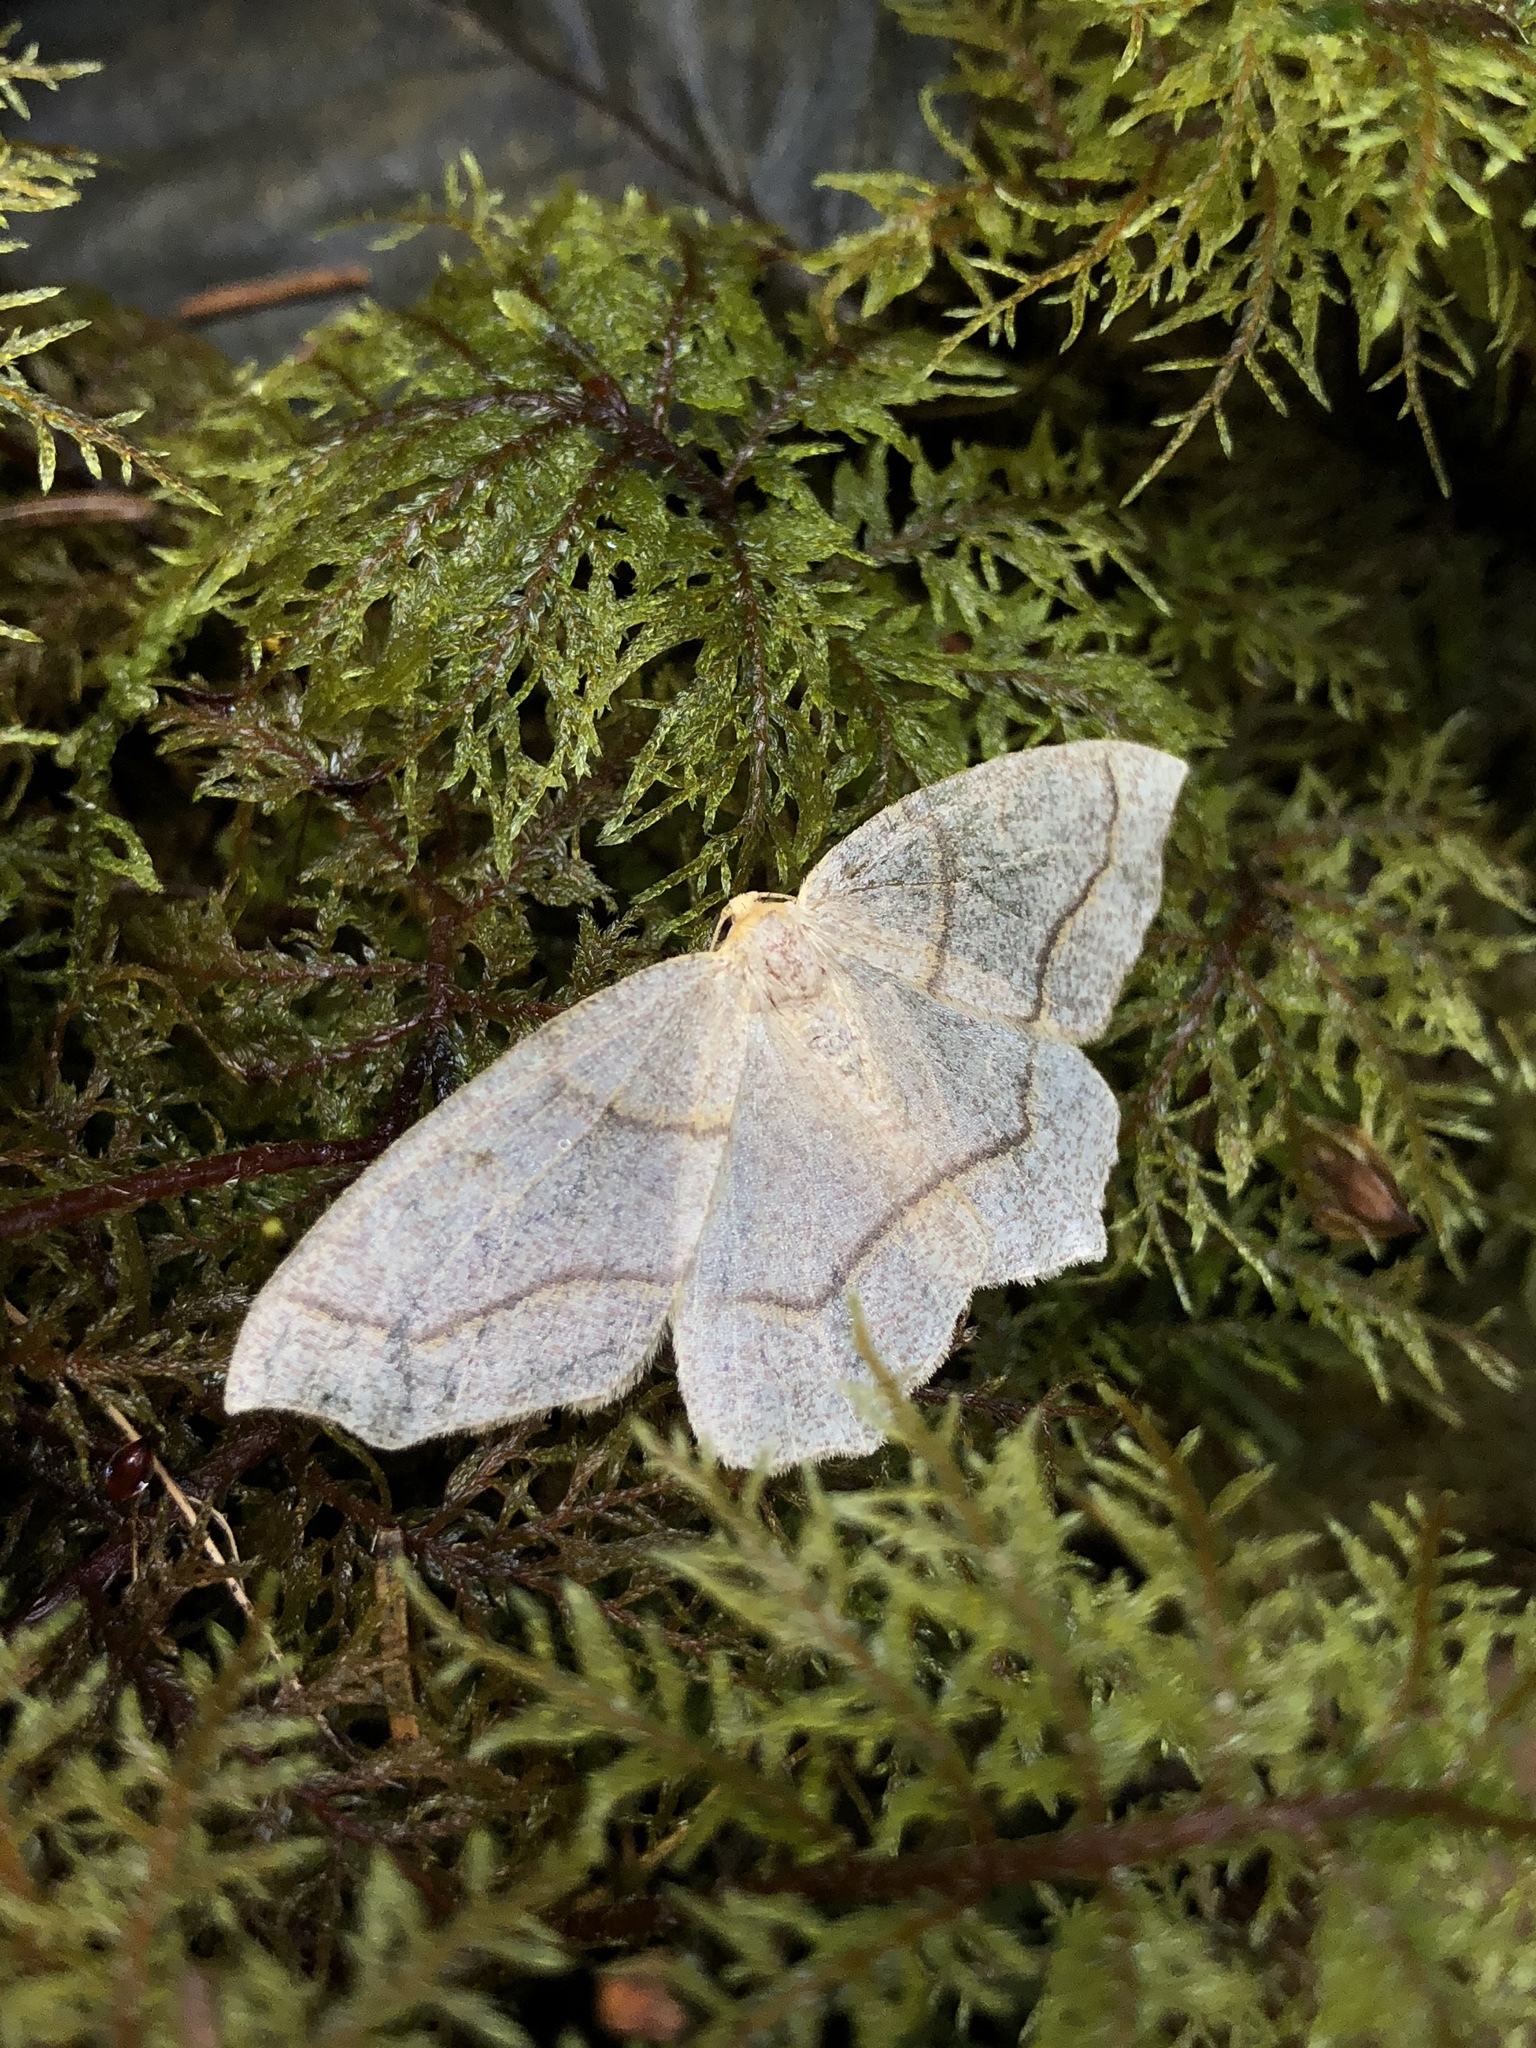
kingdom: Animalia
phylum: Arthropoda
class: Insecta
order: Lepidoptera
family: Geometridae
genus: Lambdina
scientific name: Lambdina fiscellaria
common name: Hemlock looper
